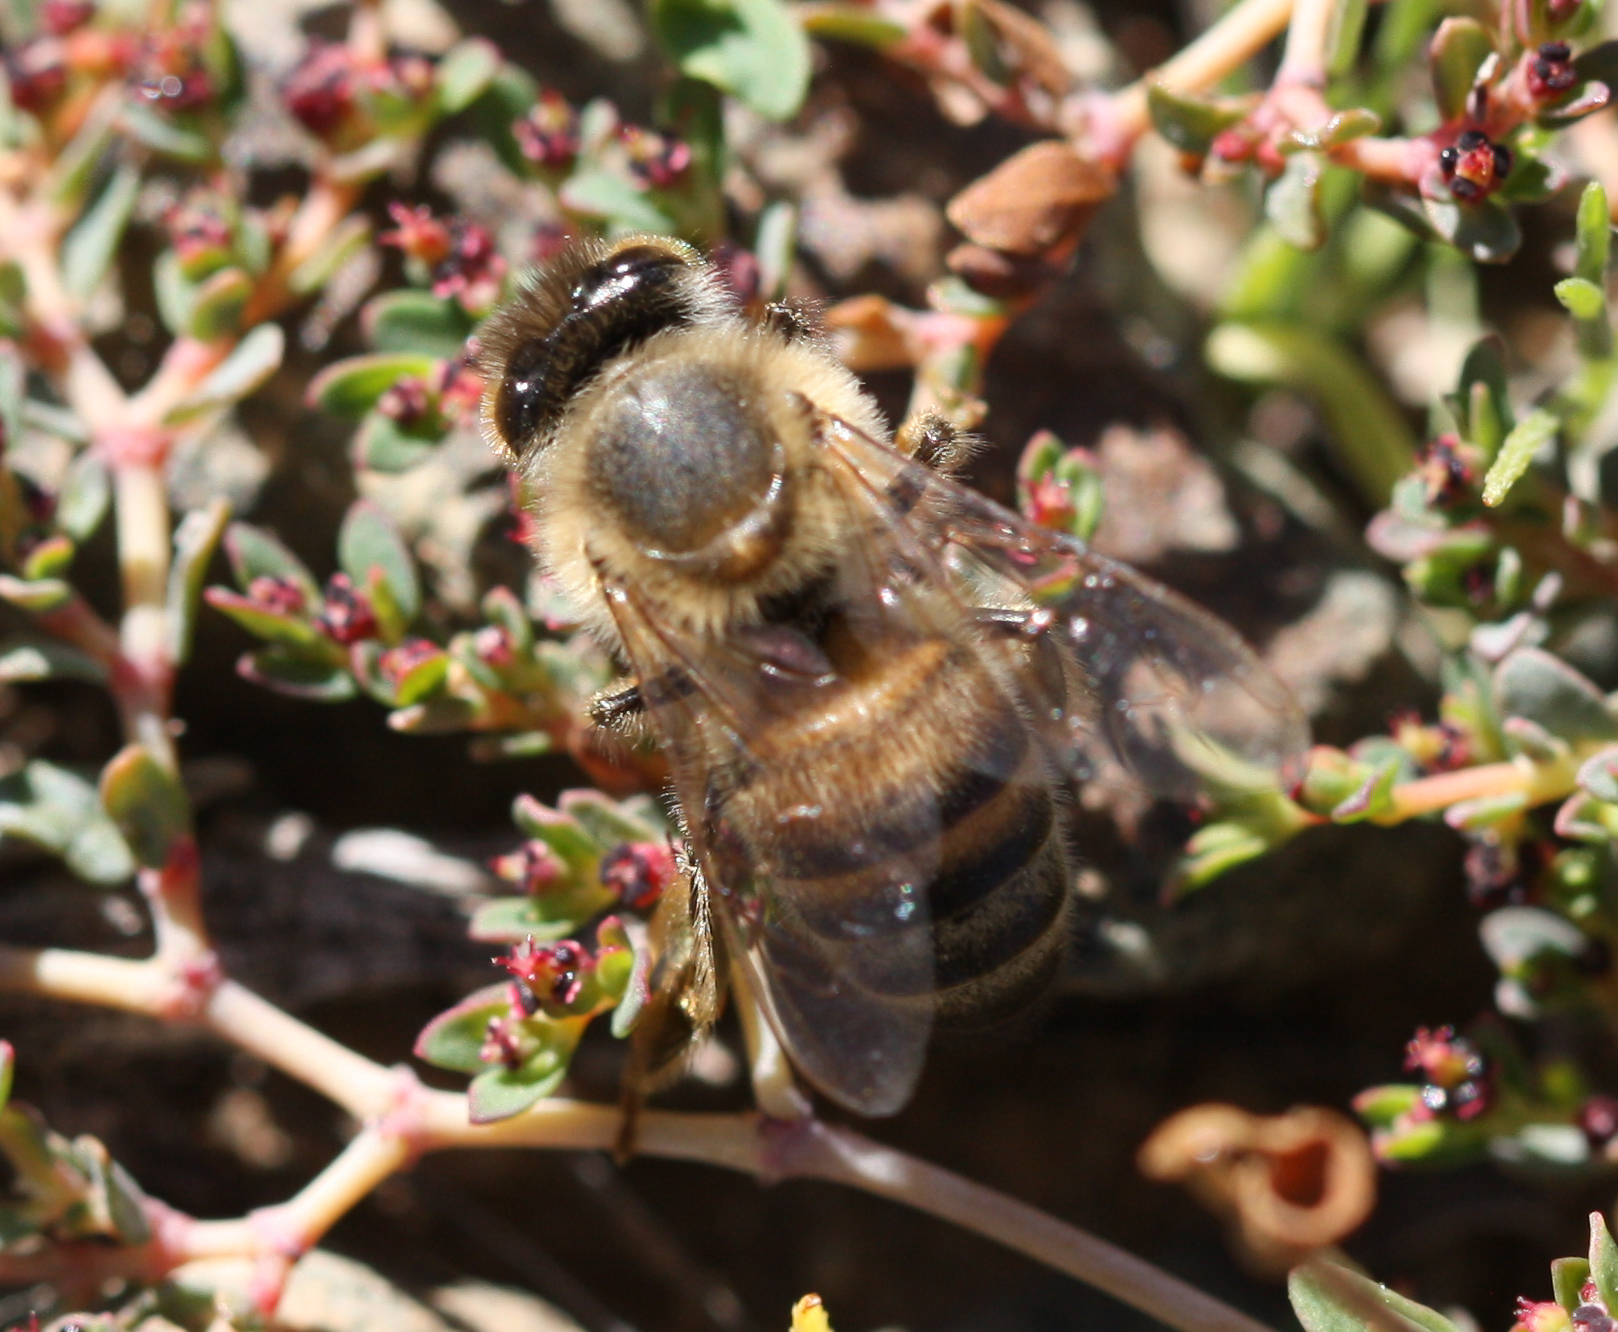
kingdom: Animalia
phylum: Arthropoda
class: Insecta
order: Hymenoptera
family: Apidae
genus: Apis
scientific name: Apis mellifera
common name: Honey bee
